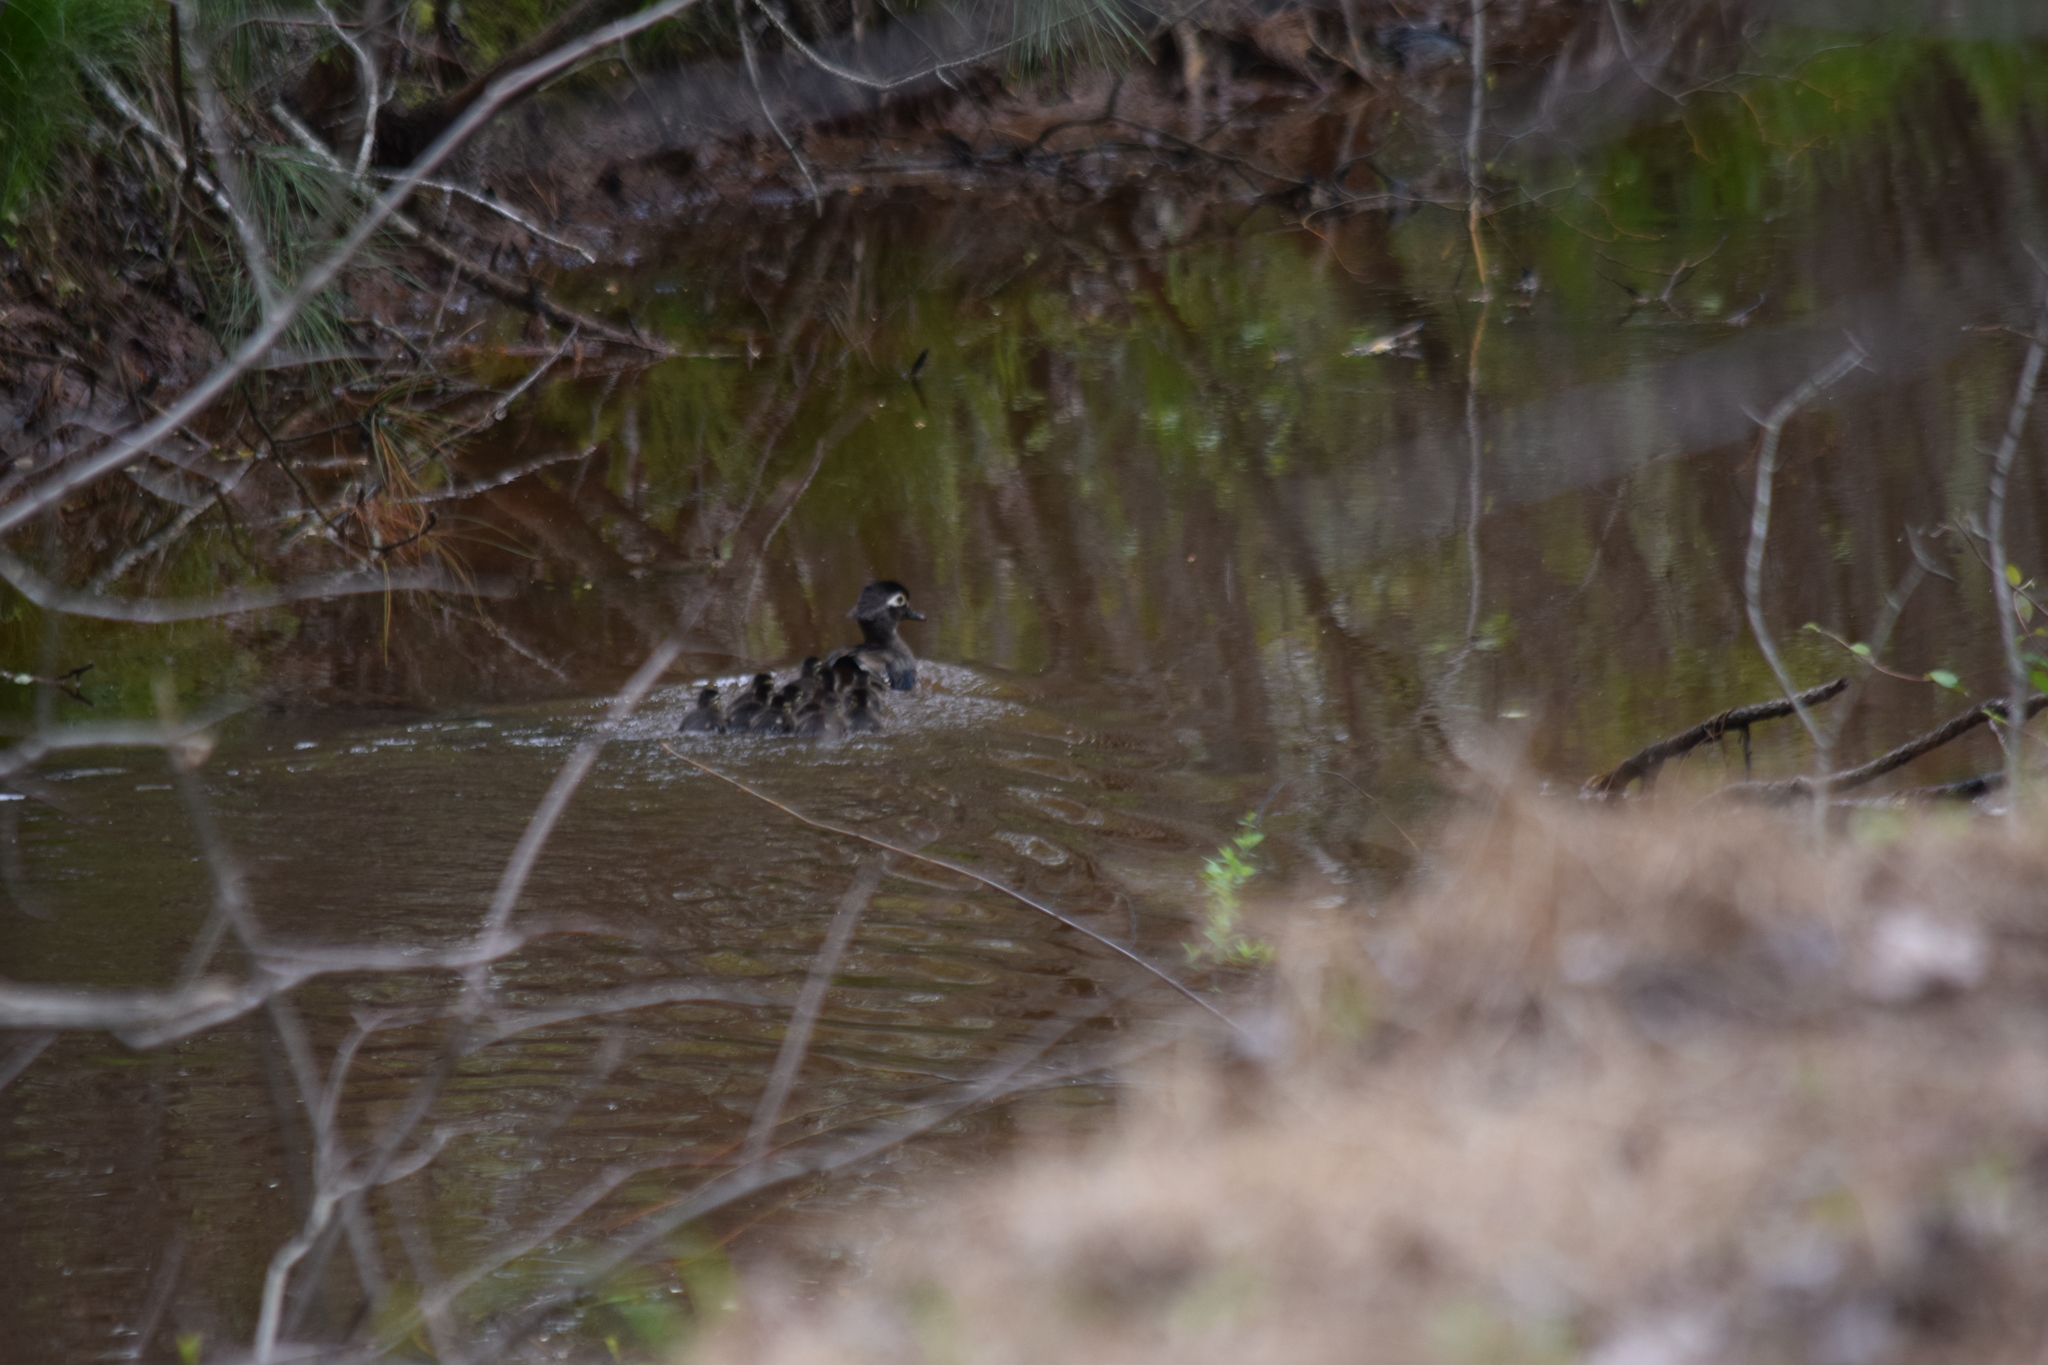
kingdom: Animalia
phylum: Chordata
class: Aves
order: Anseriformes
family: Anatidae
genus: Aix
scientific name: Aix sponsa
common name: Wood duck
